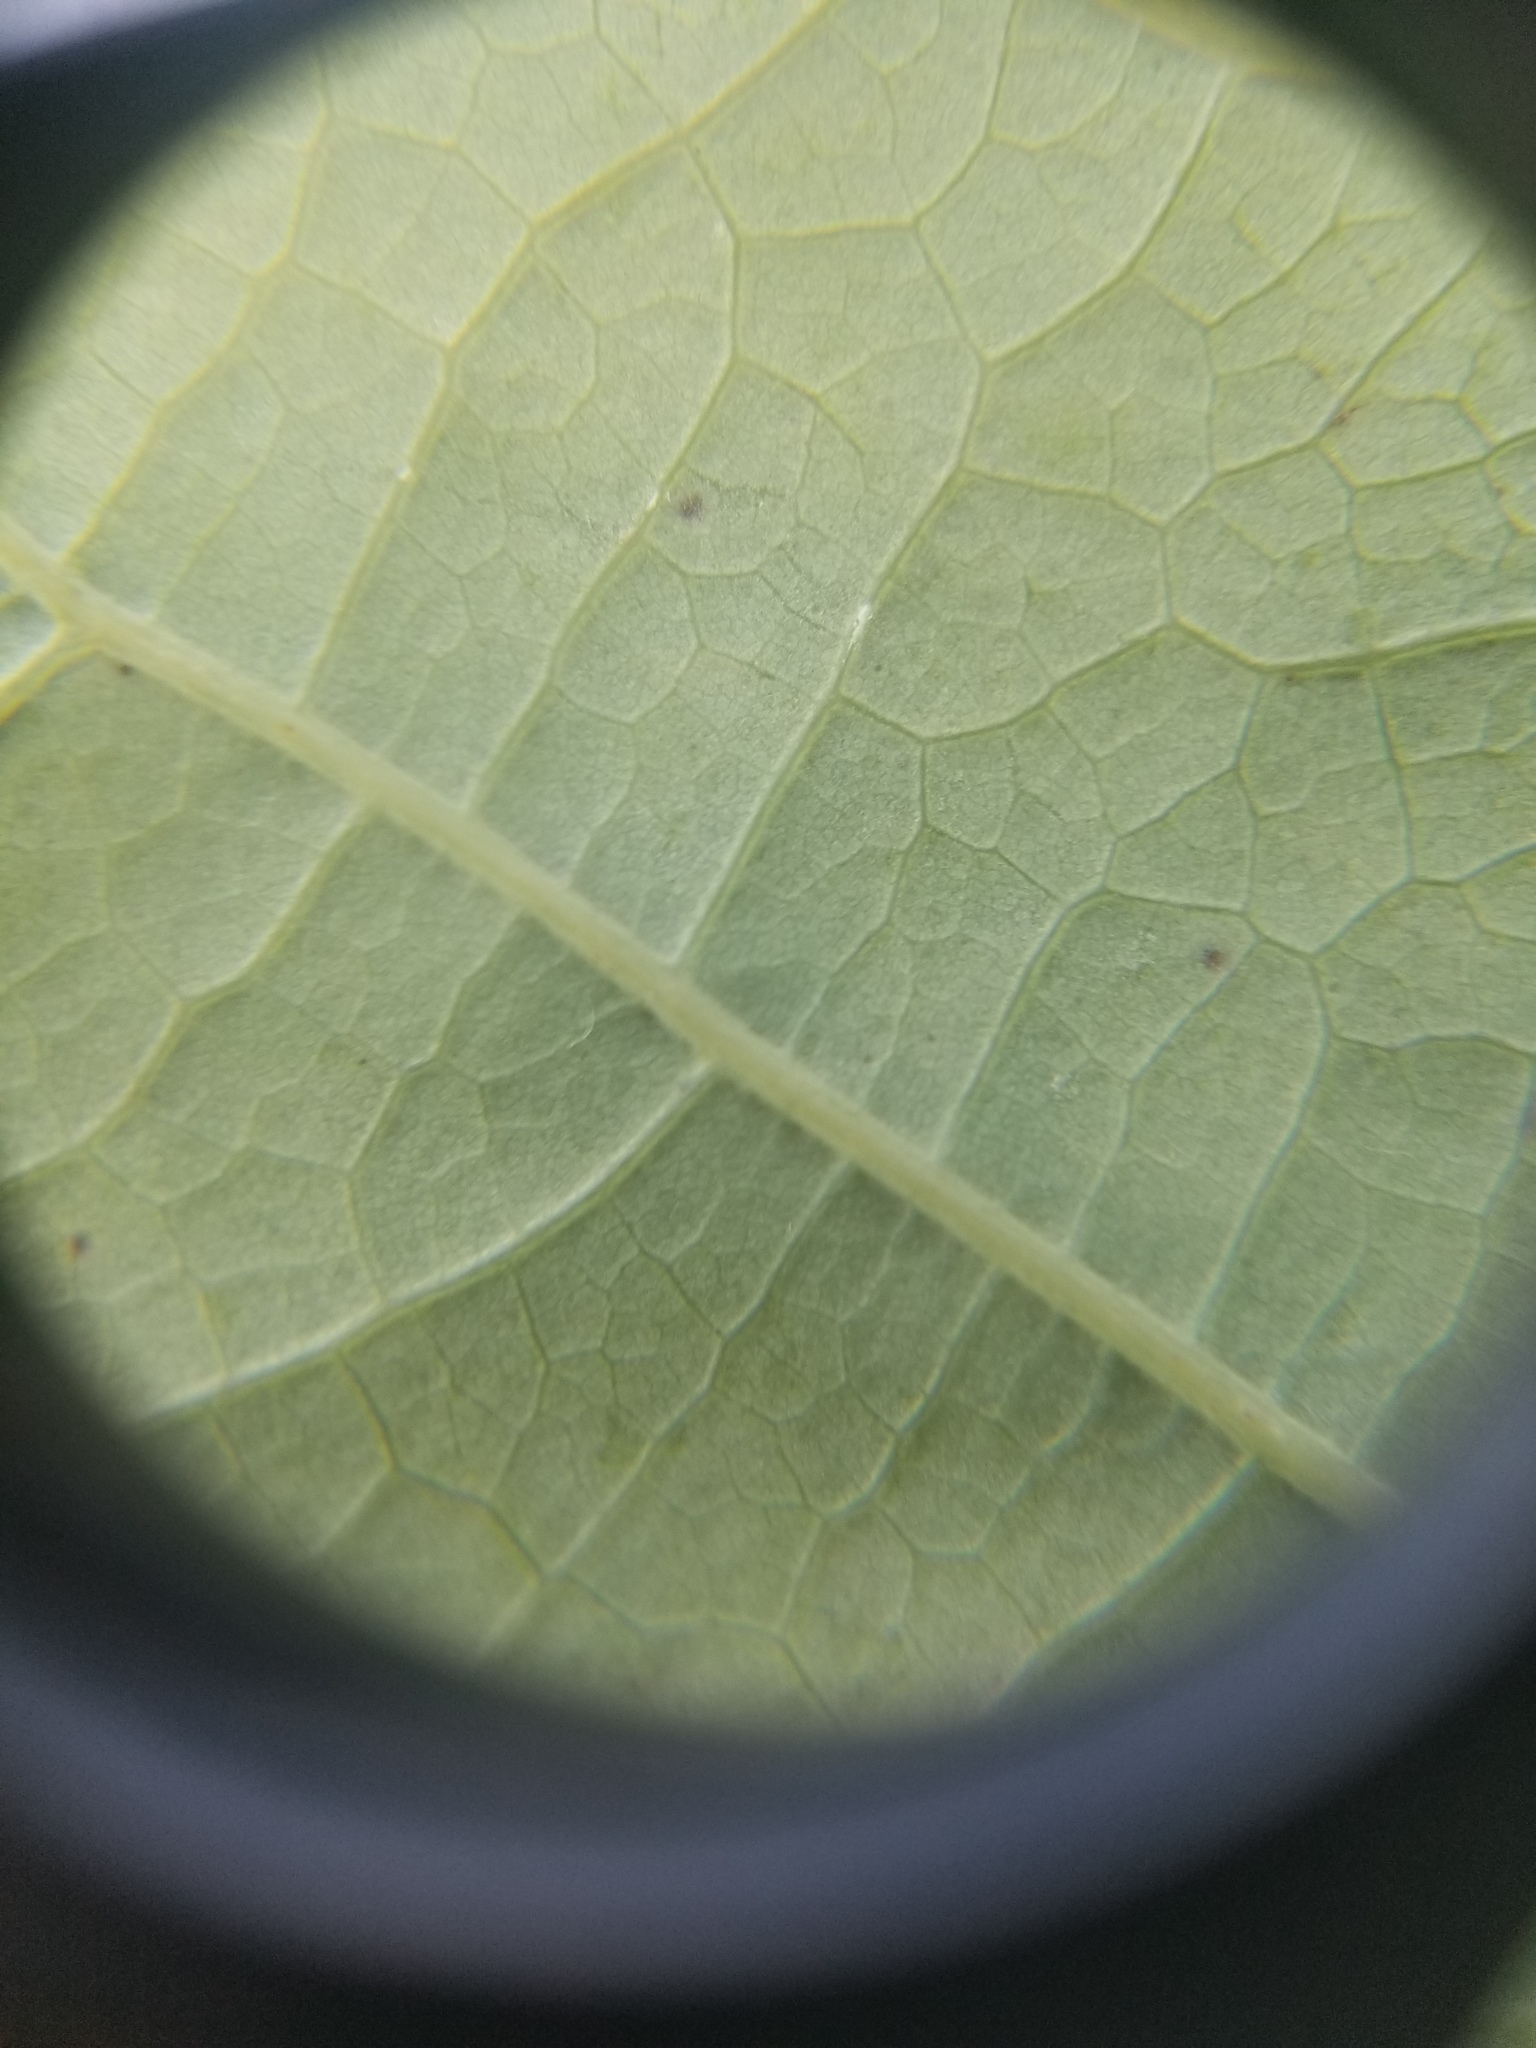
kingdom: Plantae
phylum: Tracheophyta
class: Magnoliopsida
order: Fagales
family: Fagaceae
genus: Quercus
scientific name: Quercus alba
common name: White oak
